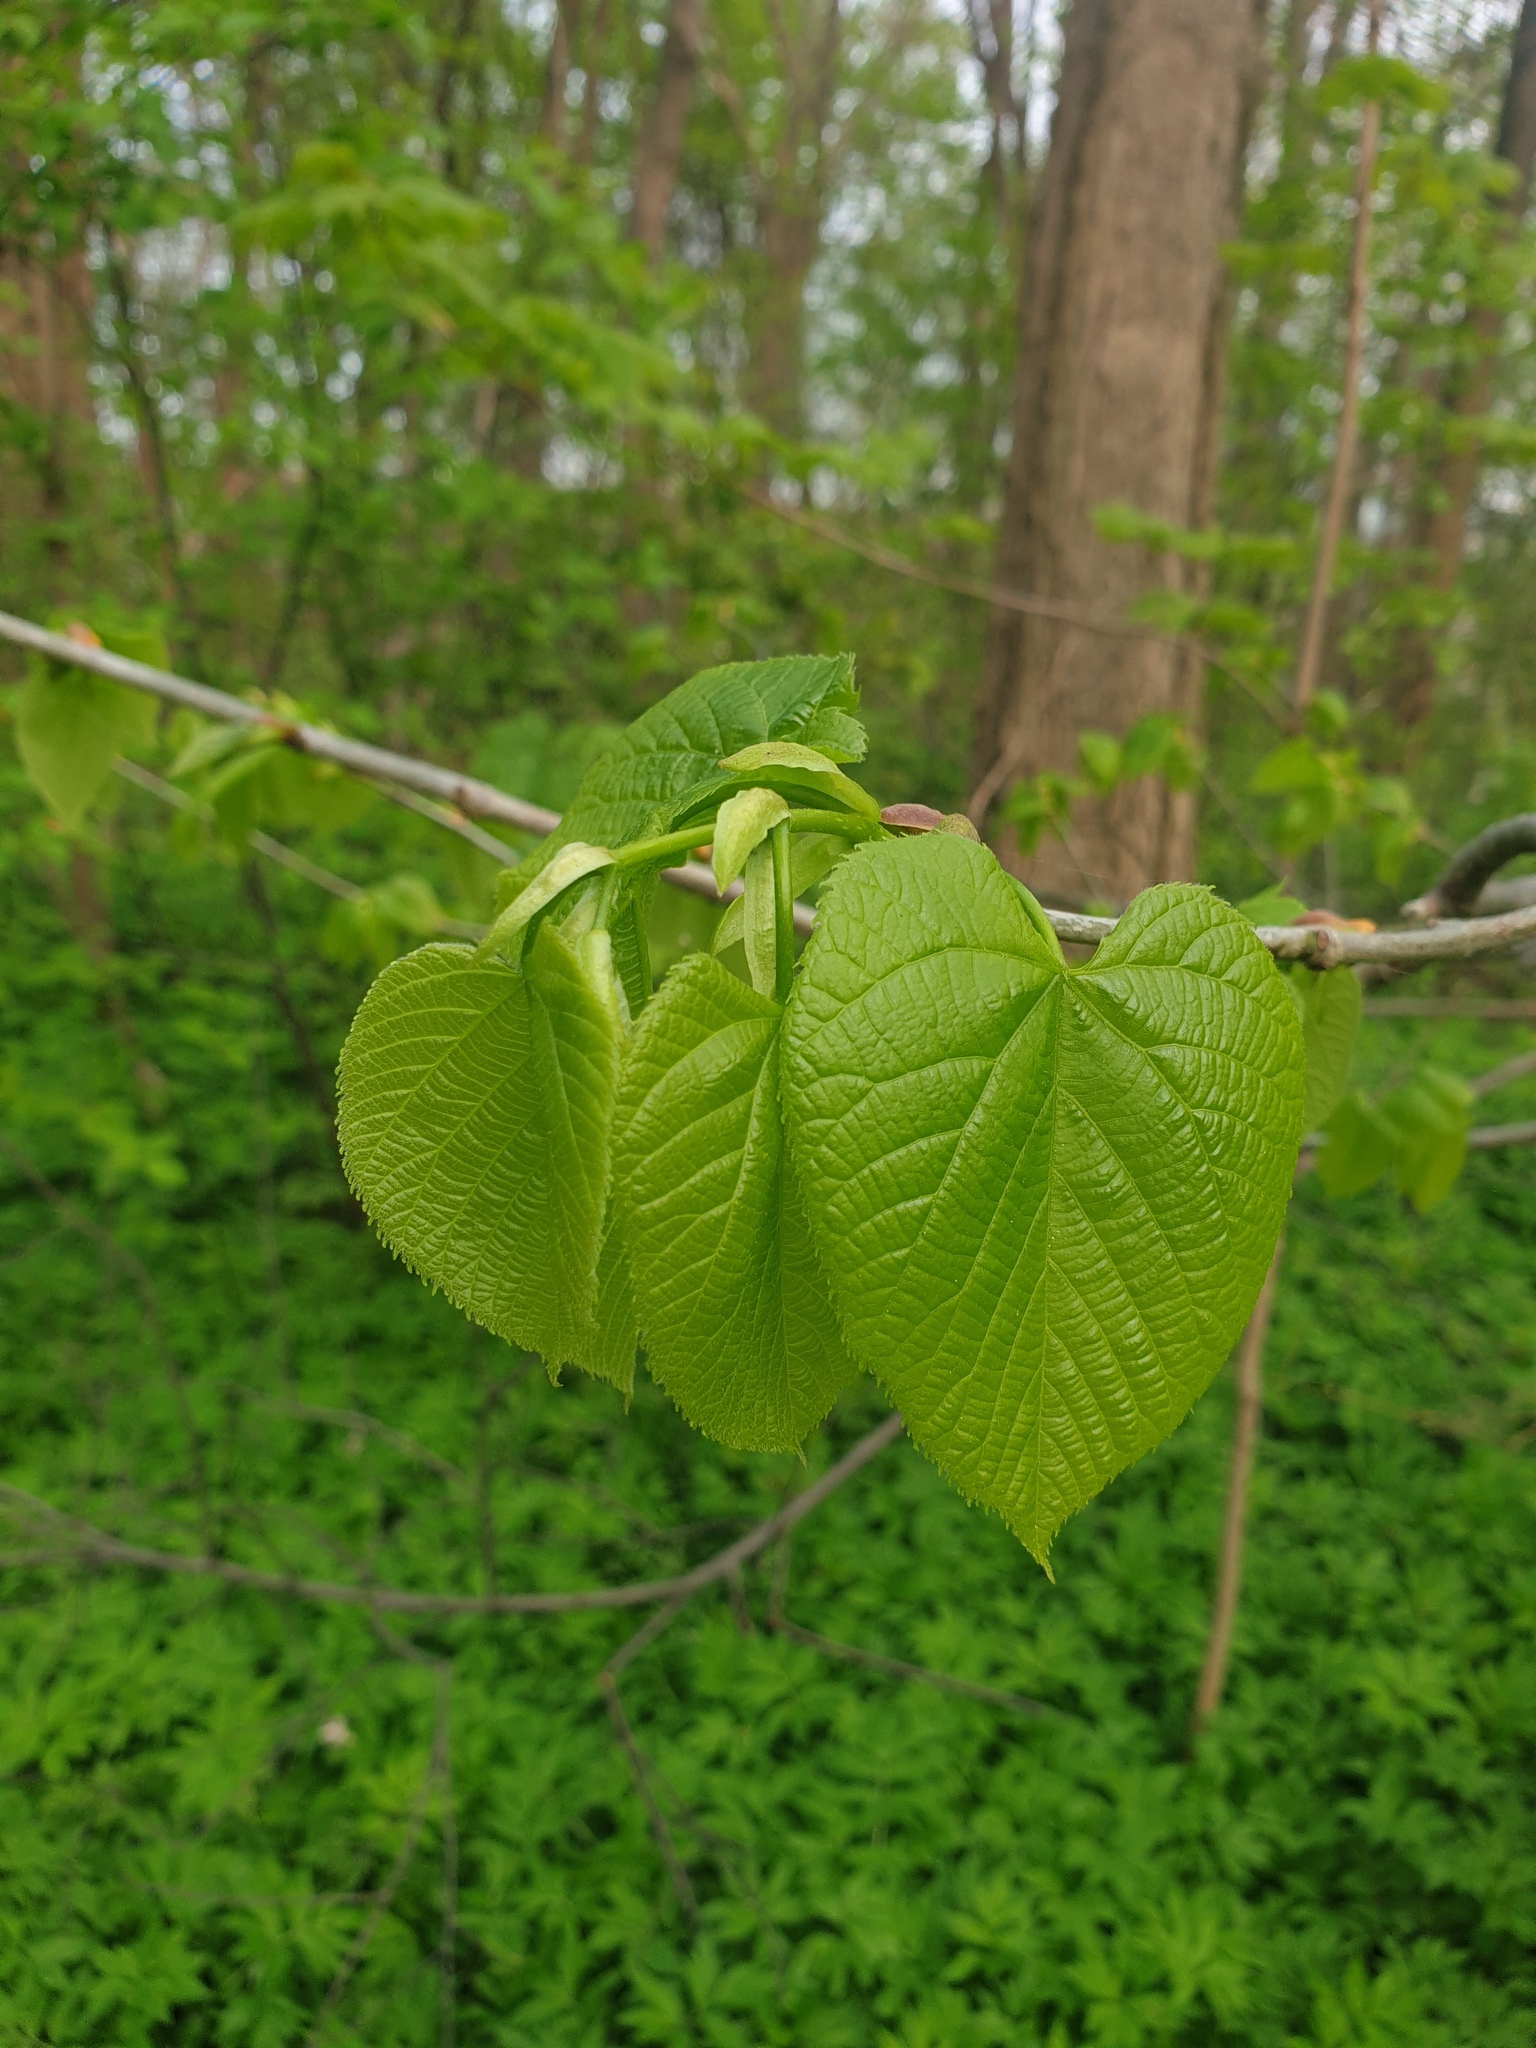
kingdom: Plantae
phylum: Tracheophyta
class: Magnoliopsida
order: Malvales
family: Malvaceae
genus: Tilia
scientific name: Tilia americana
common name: Basswood
